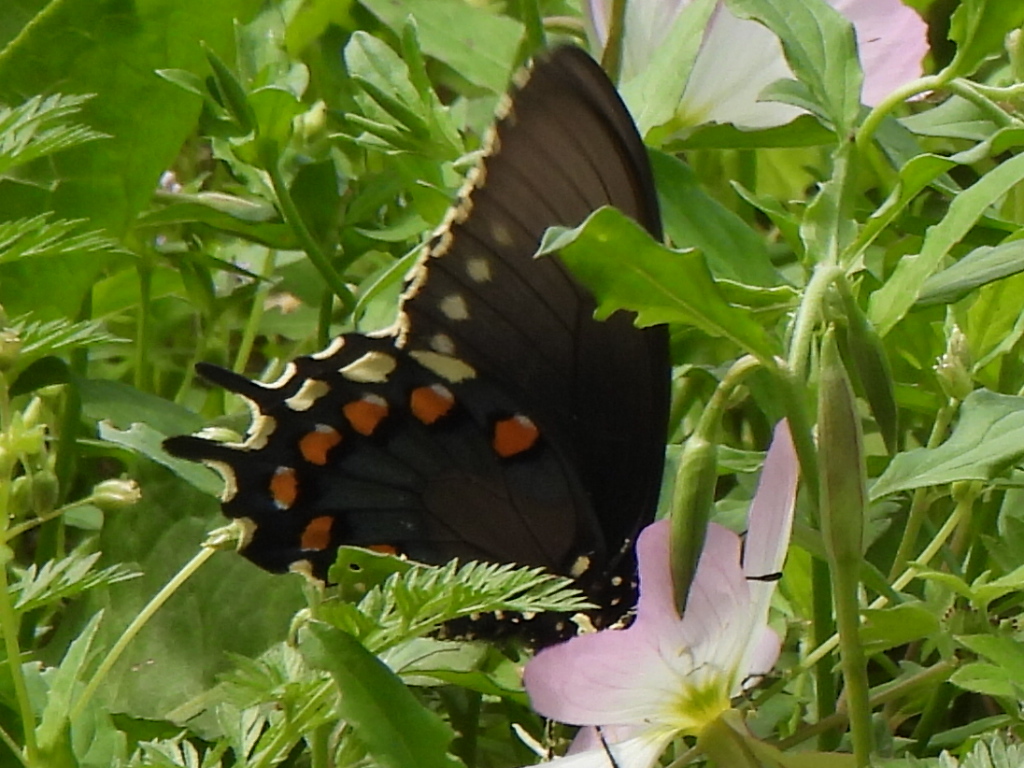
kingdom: Animalia
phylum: Arthropoda
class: Insecta
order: Lepidoptera
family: Papilionidae
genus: Battus
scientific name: Battus philenor
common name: Pipevine swallowtail
